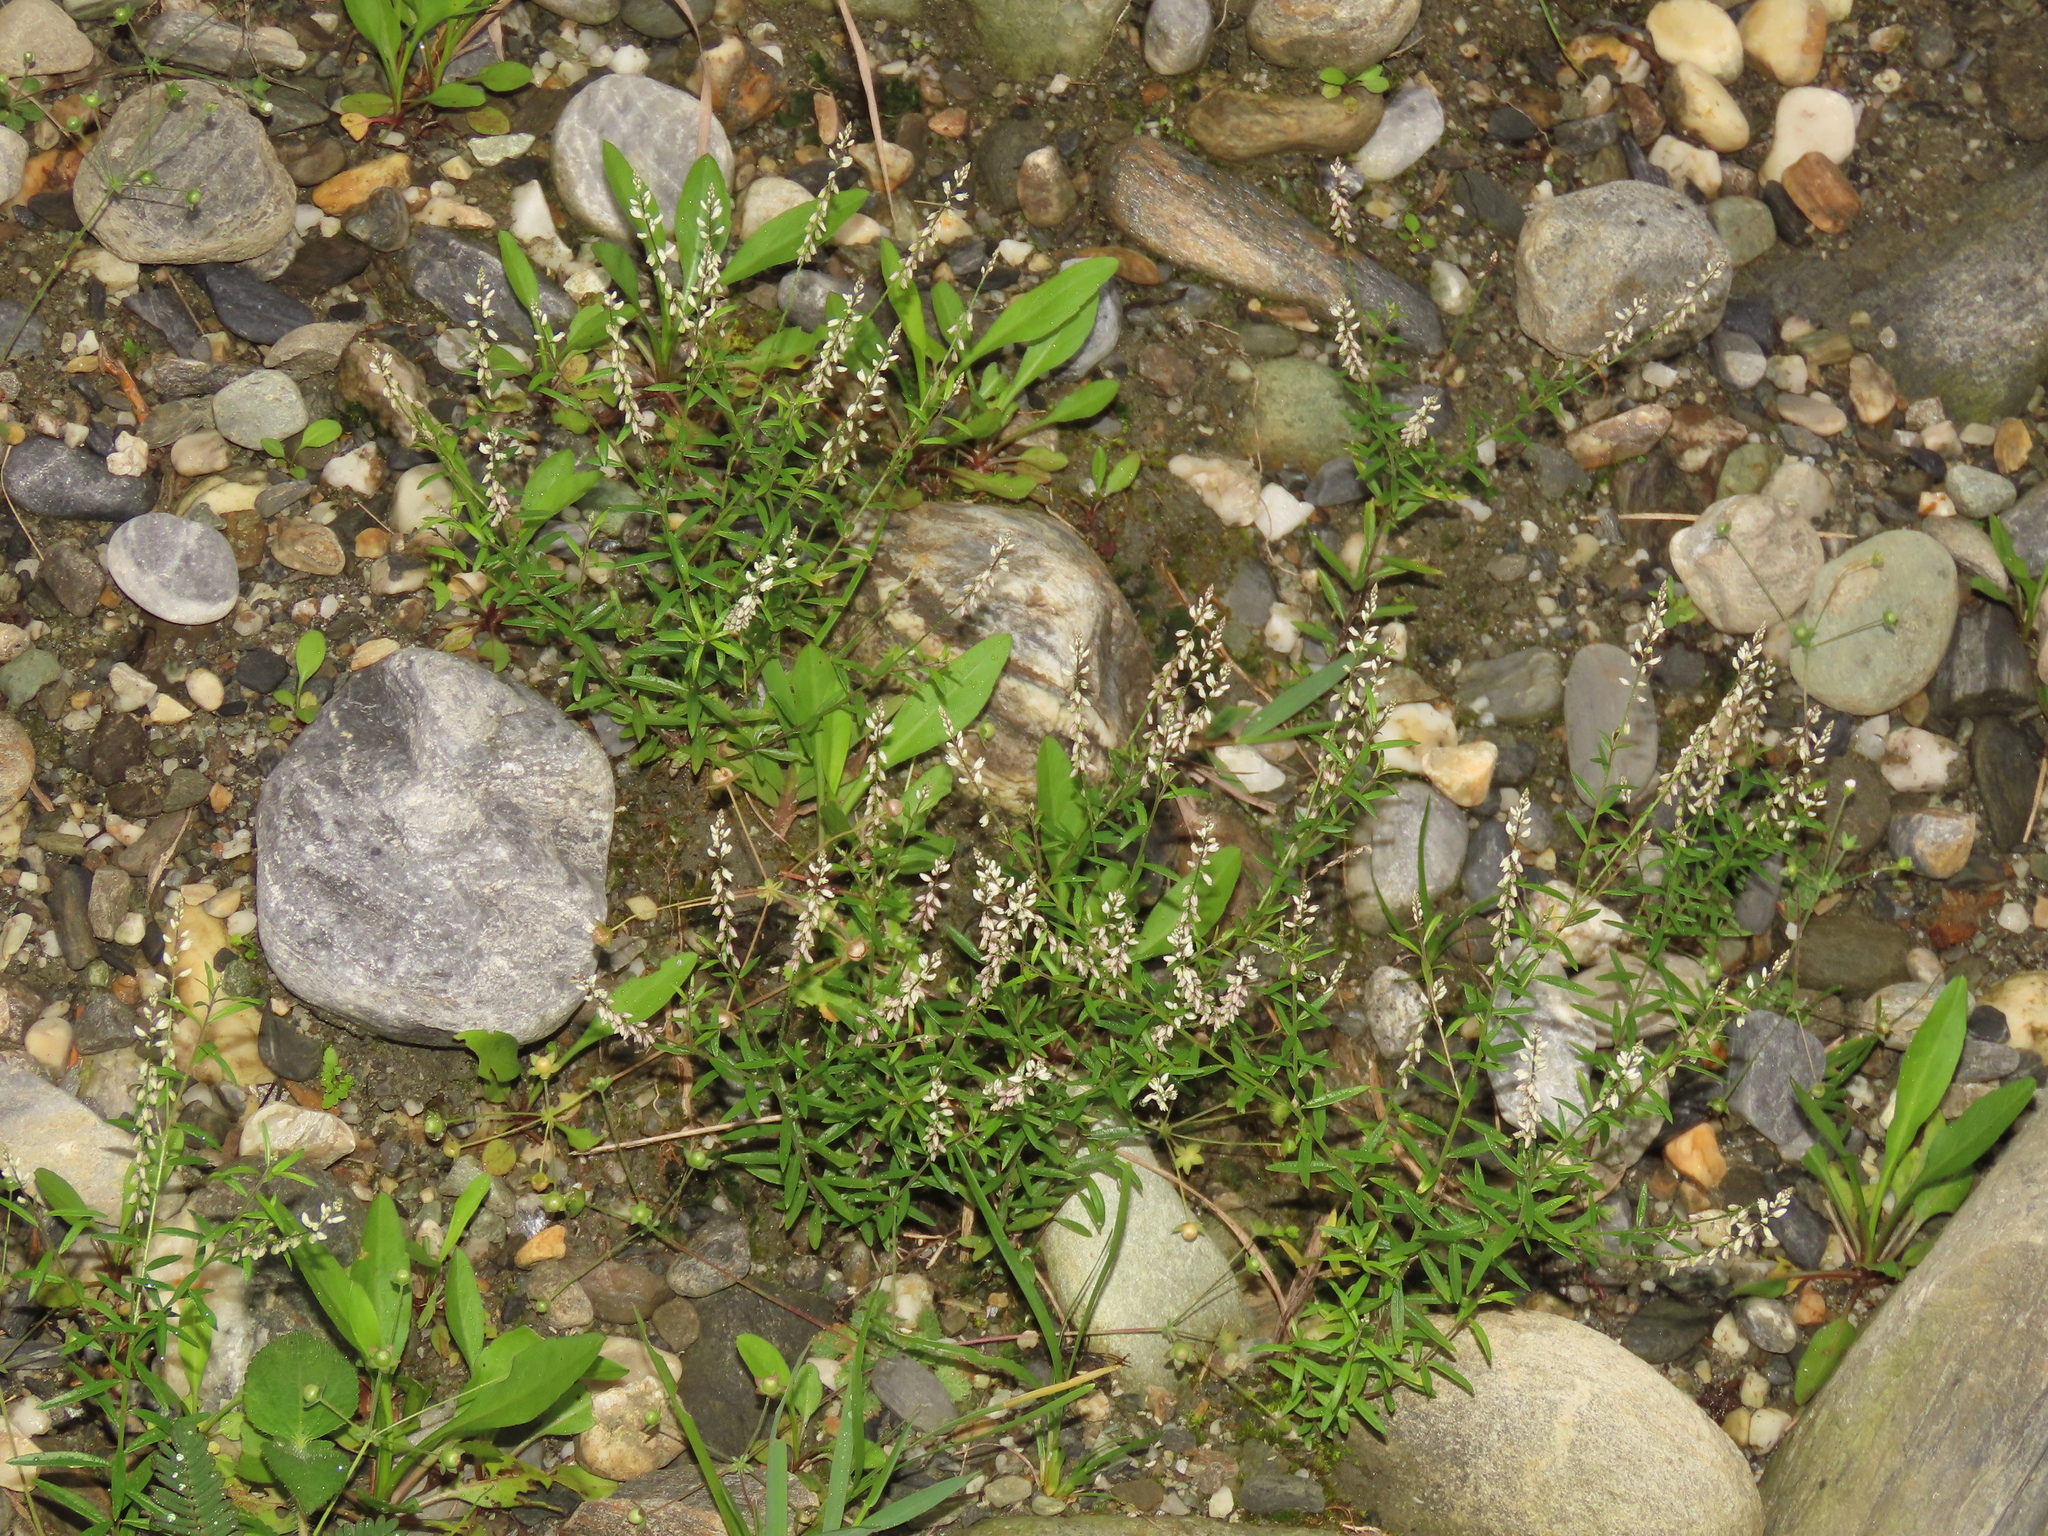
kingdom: Plantae
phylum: Tracheophyta
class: Magnoliopsida
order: Fabales
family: Polygalaceae
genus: Polygala
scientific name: Polygala paniculata
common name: Orosne
